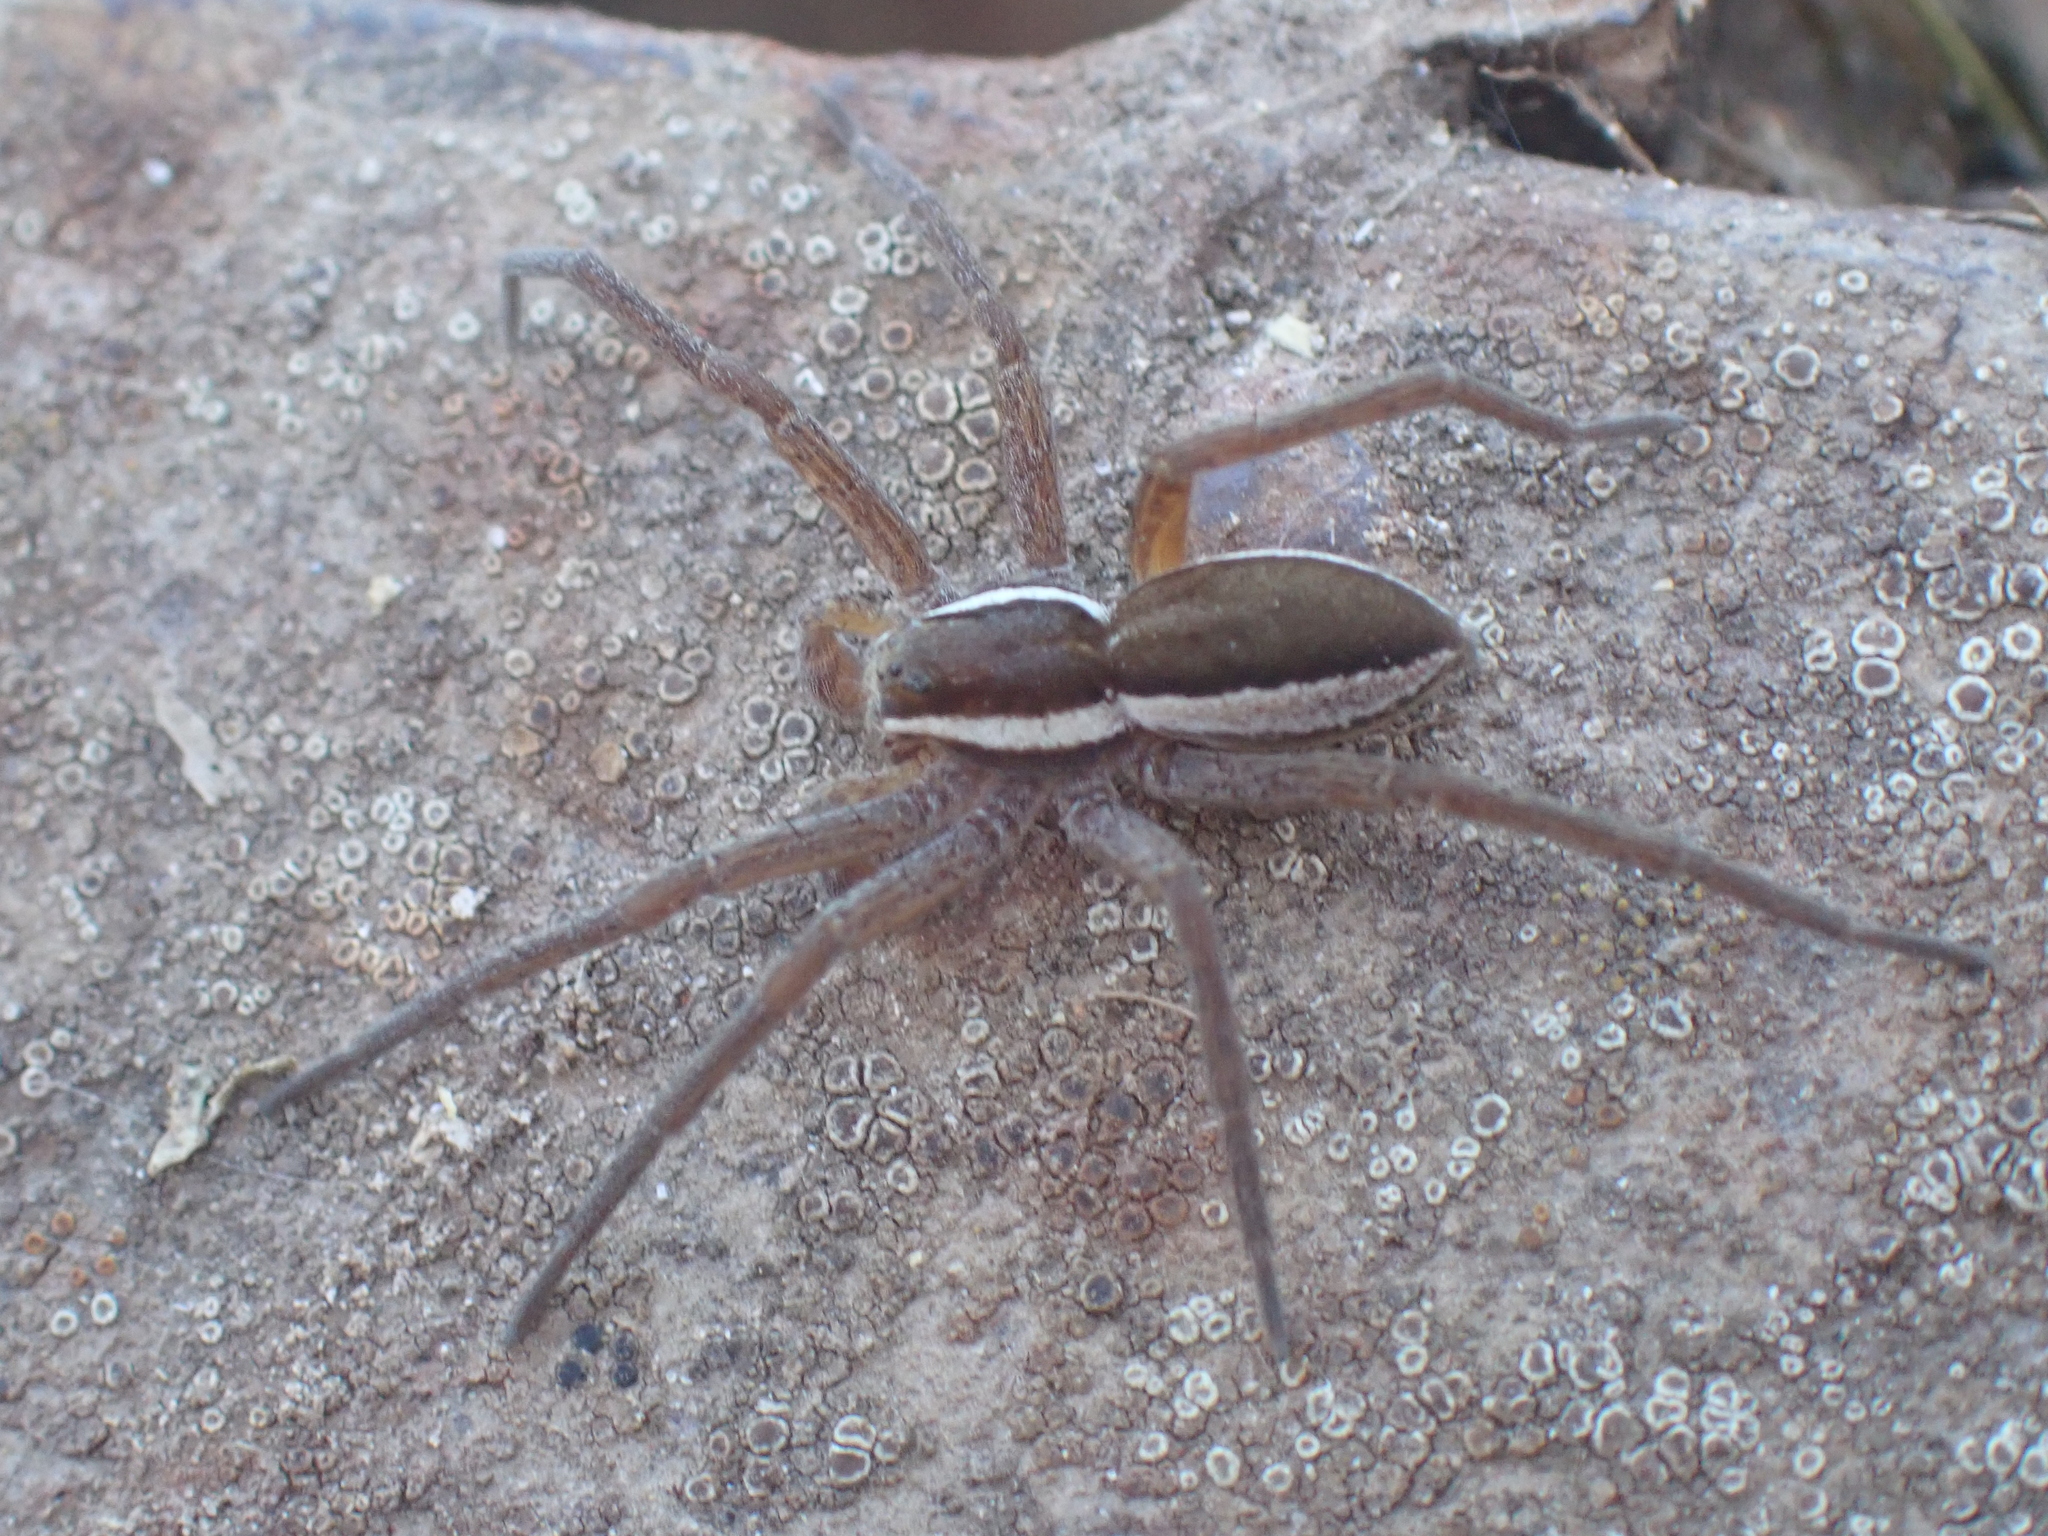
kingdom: Animalia
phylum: Arthropoda
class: Arachnida
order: Araneae
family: Pisauridae
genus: Dolomedes
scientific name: Dolomedes
